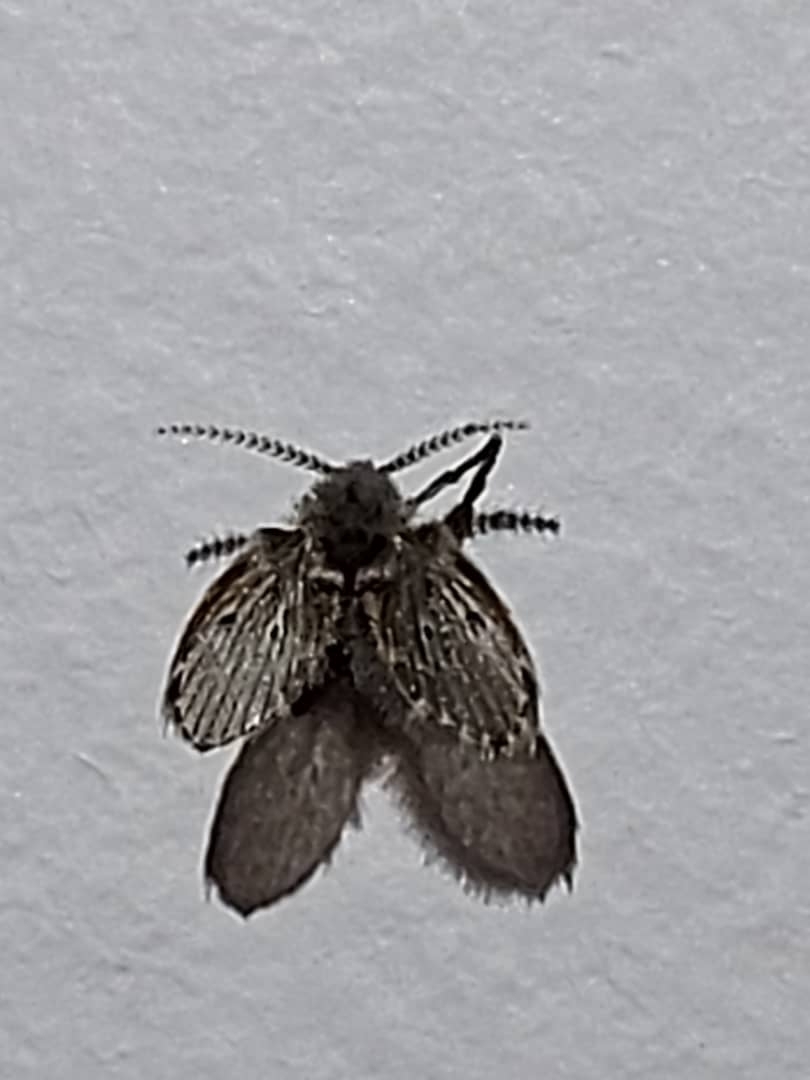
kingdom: Animalia
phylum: Arthropoda
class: Insecta
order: Diptera
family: Psychodidae
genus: Clogmia
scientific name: Clogmia albipunctatus
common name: White-spotted moth fly
